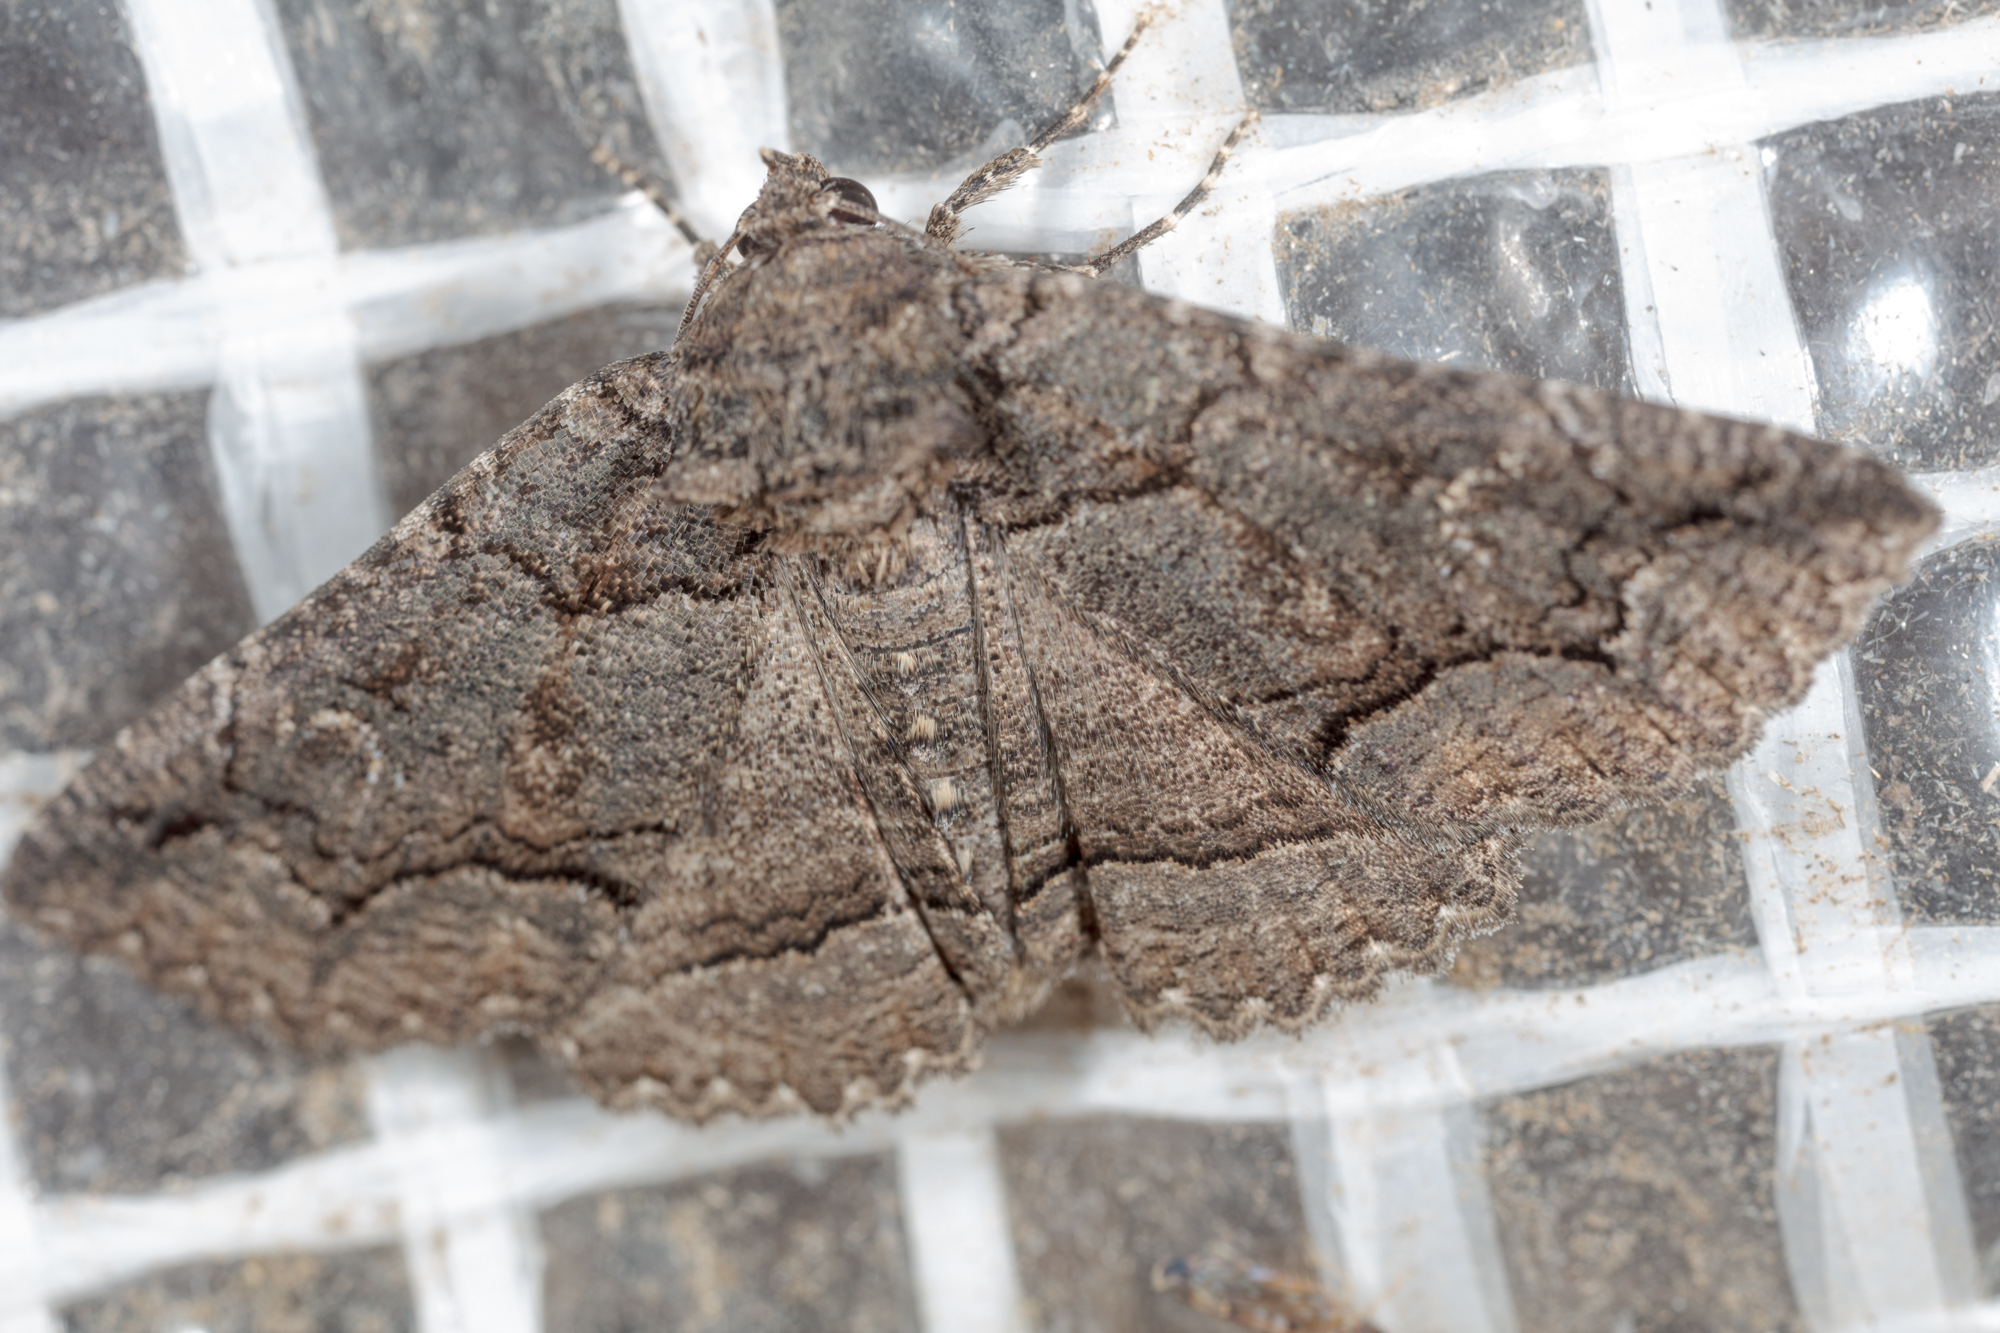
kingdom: Animalia
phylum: Arthropoda
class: Insecta
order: Lepidoptera
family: Erebidae
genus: Zale
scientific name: Zale edusina
